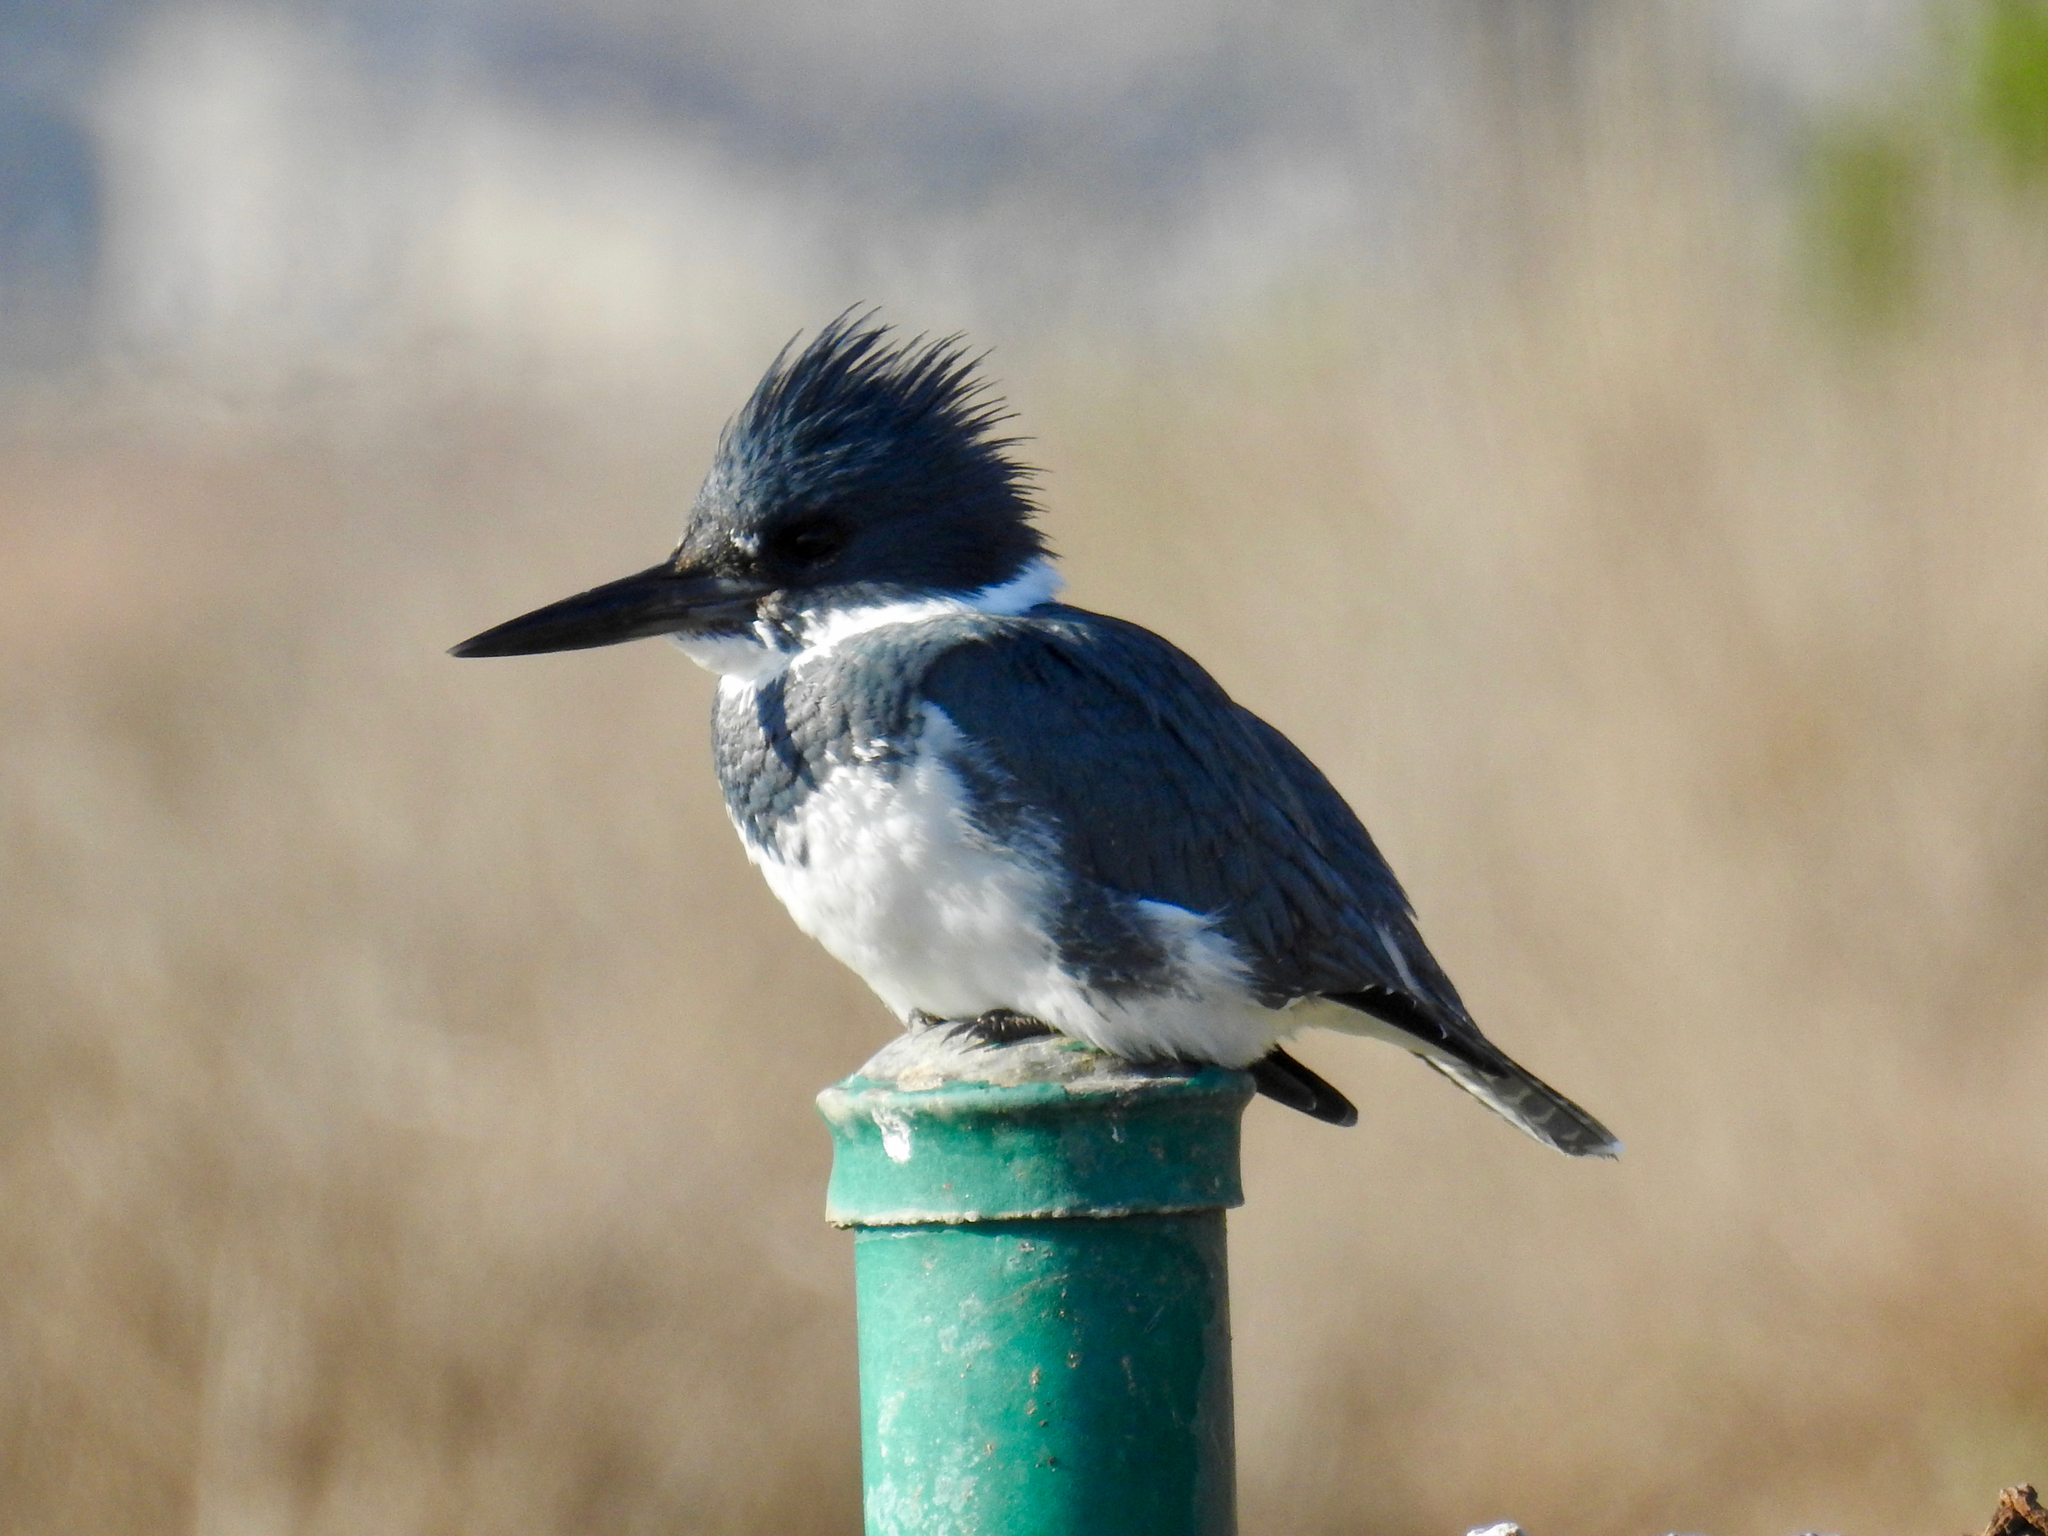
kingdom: Animalia
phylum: Chordata
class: Aves
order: Coraciiformes
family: Alcedinidae
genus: Megaceryle
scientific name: Megaceryle alcyon
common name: Belted kingfisher
